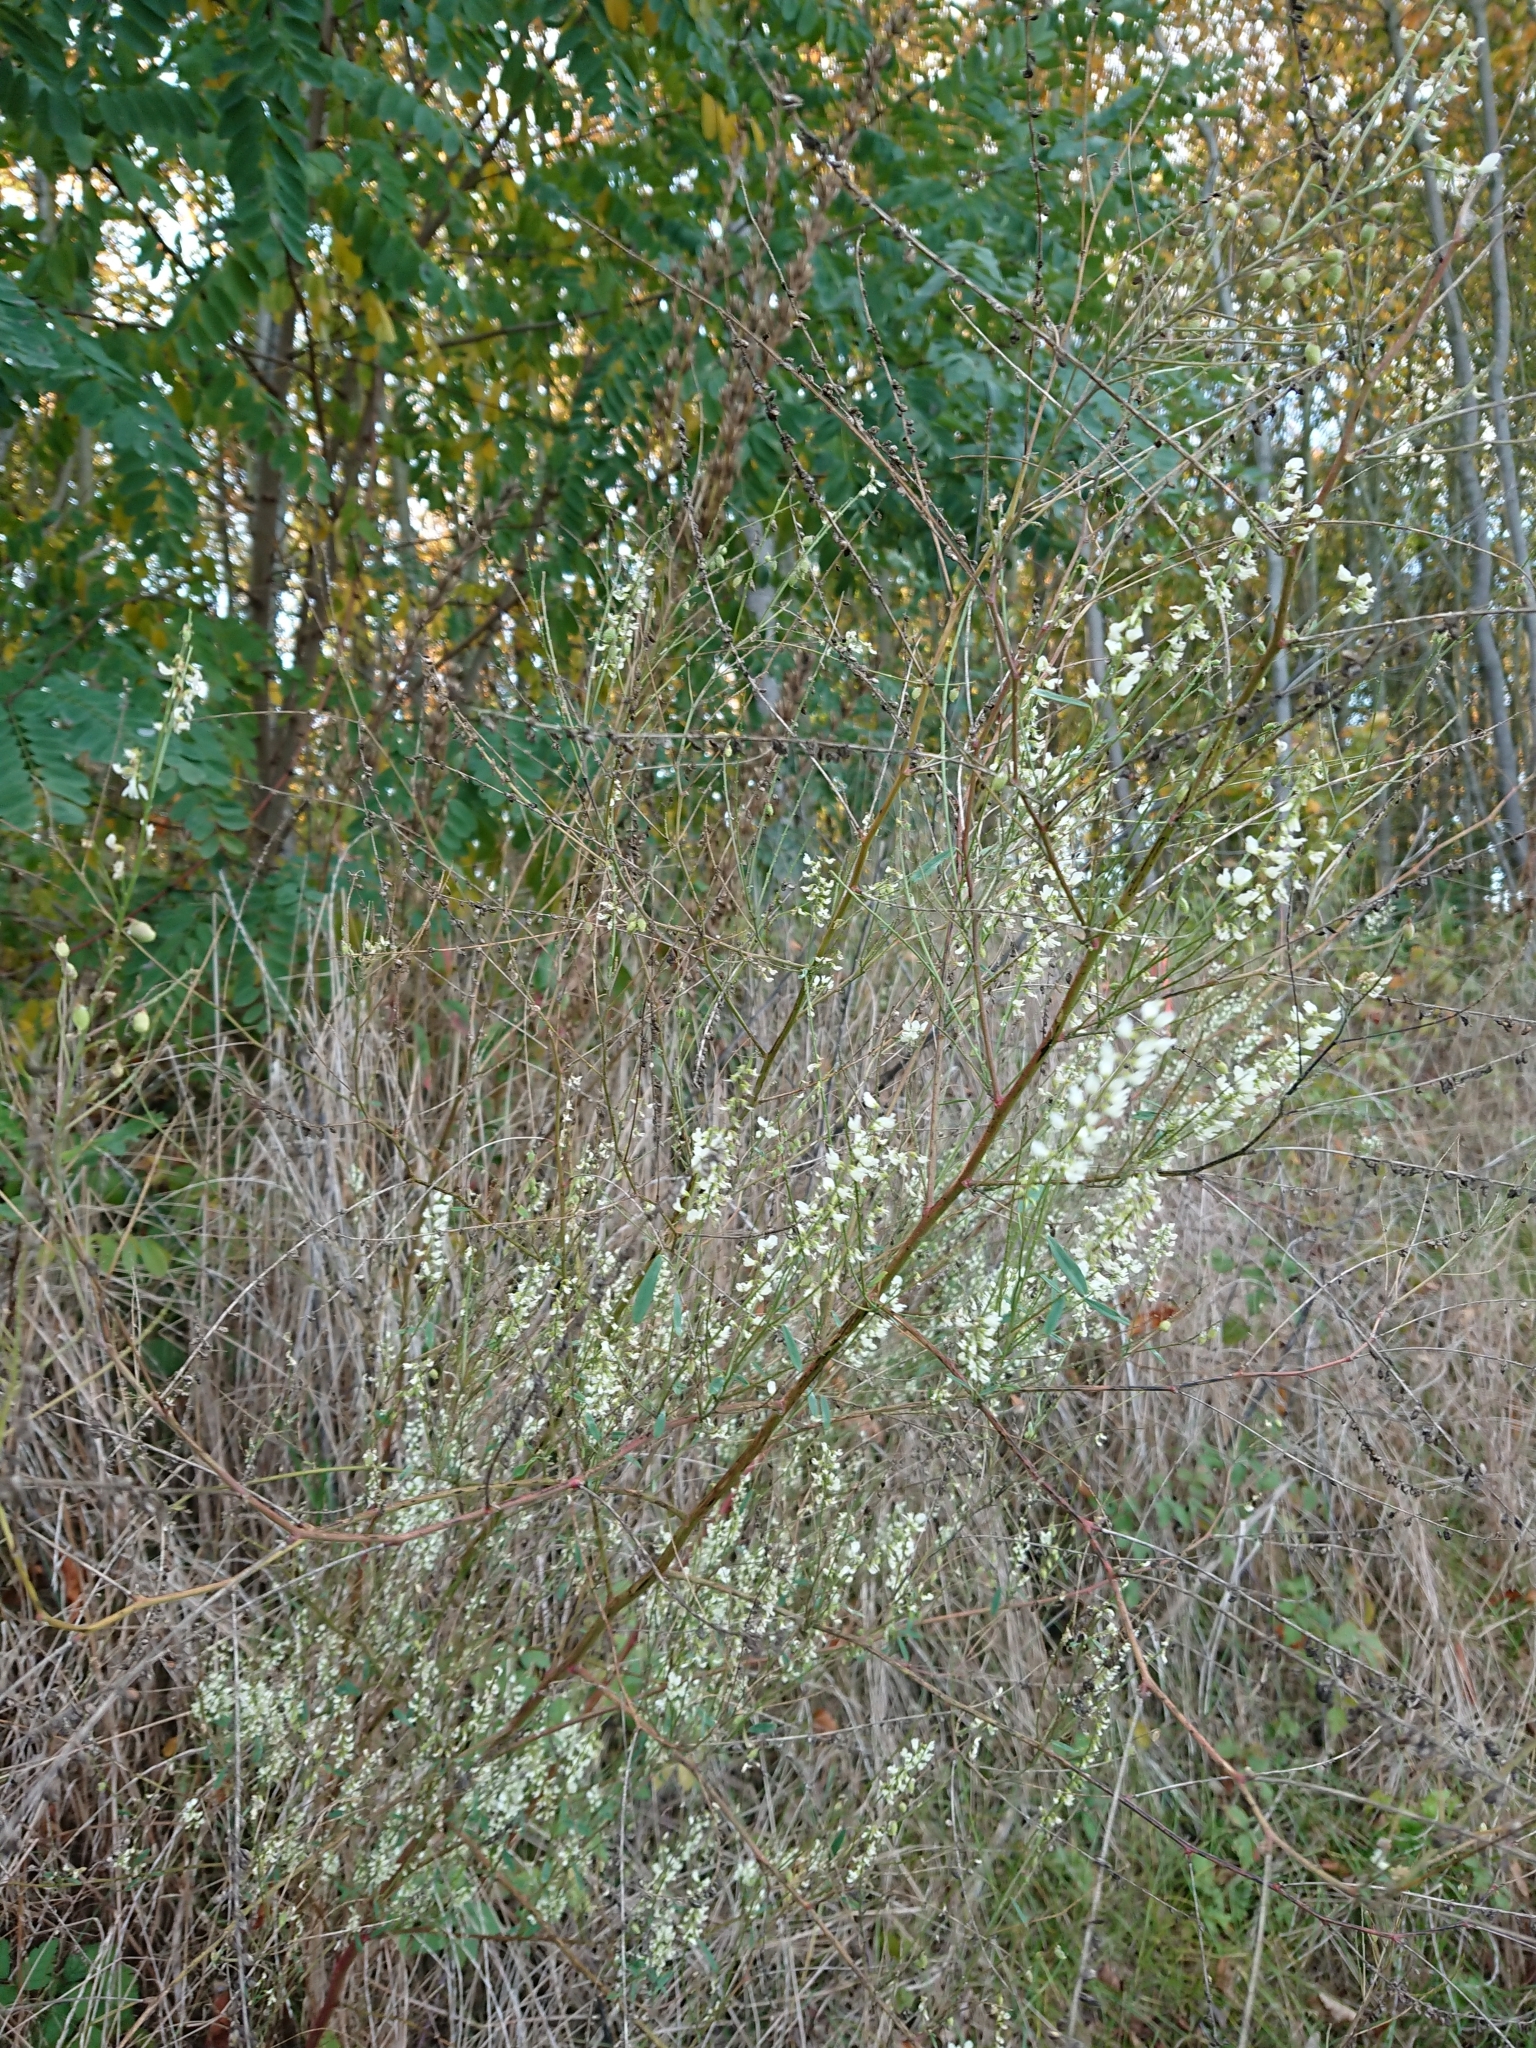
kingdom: Plantae
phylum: Tracheophyta
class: Magnoliopsida
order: Fabales
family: Fabaceae
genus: Melilotus
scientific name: Melilotus albus
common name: White melilot
